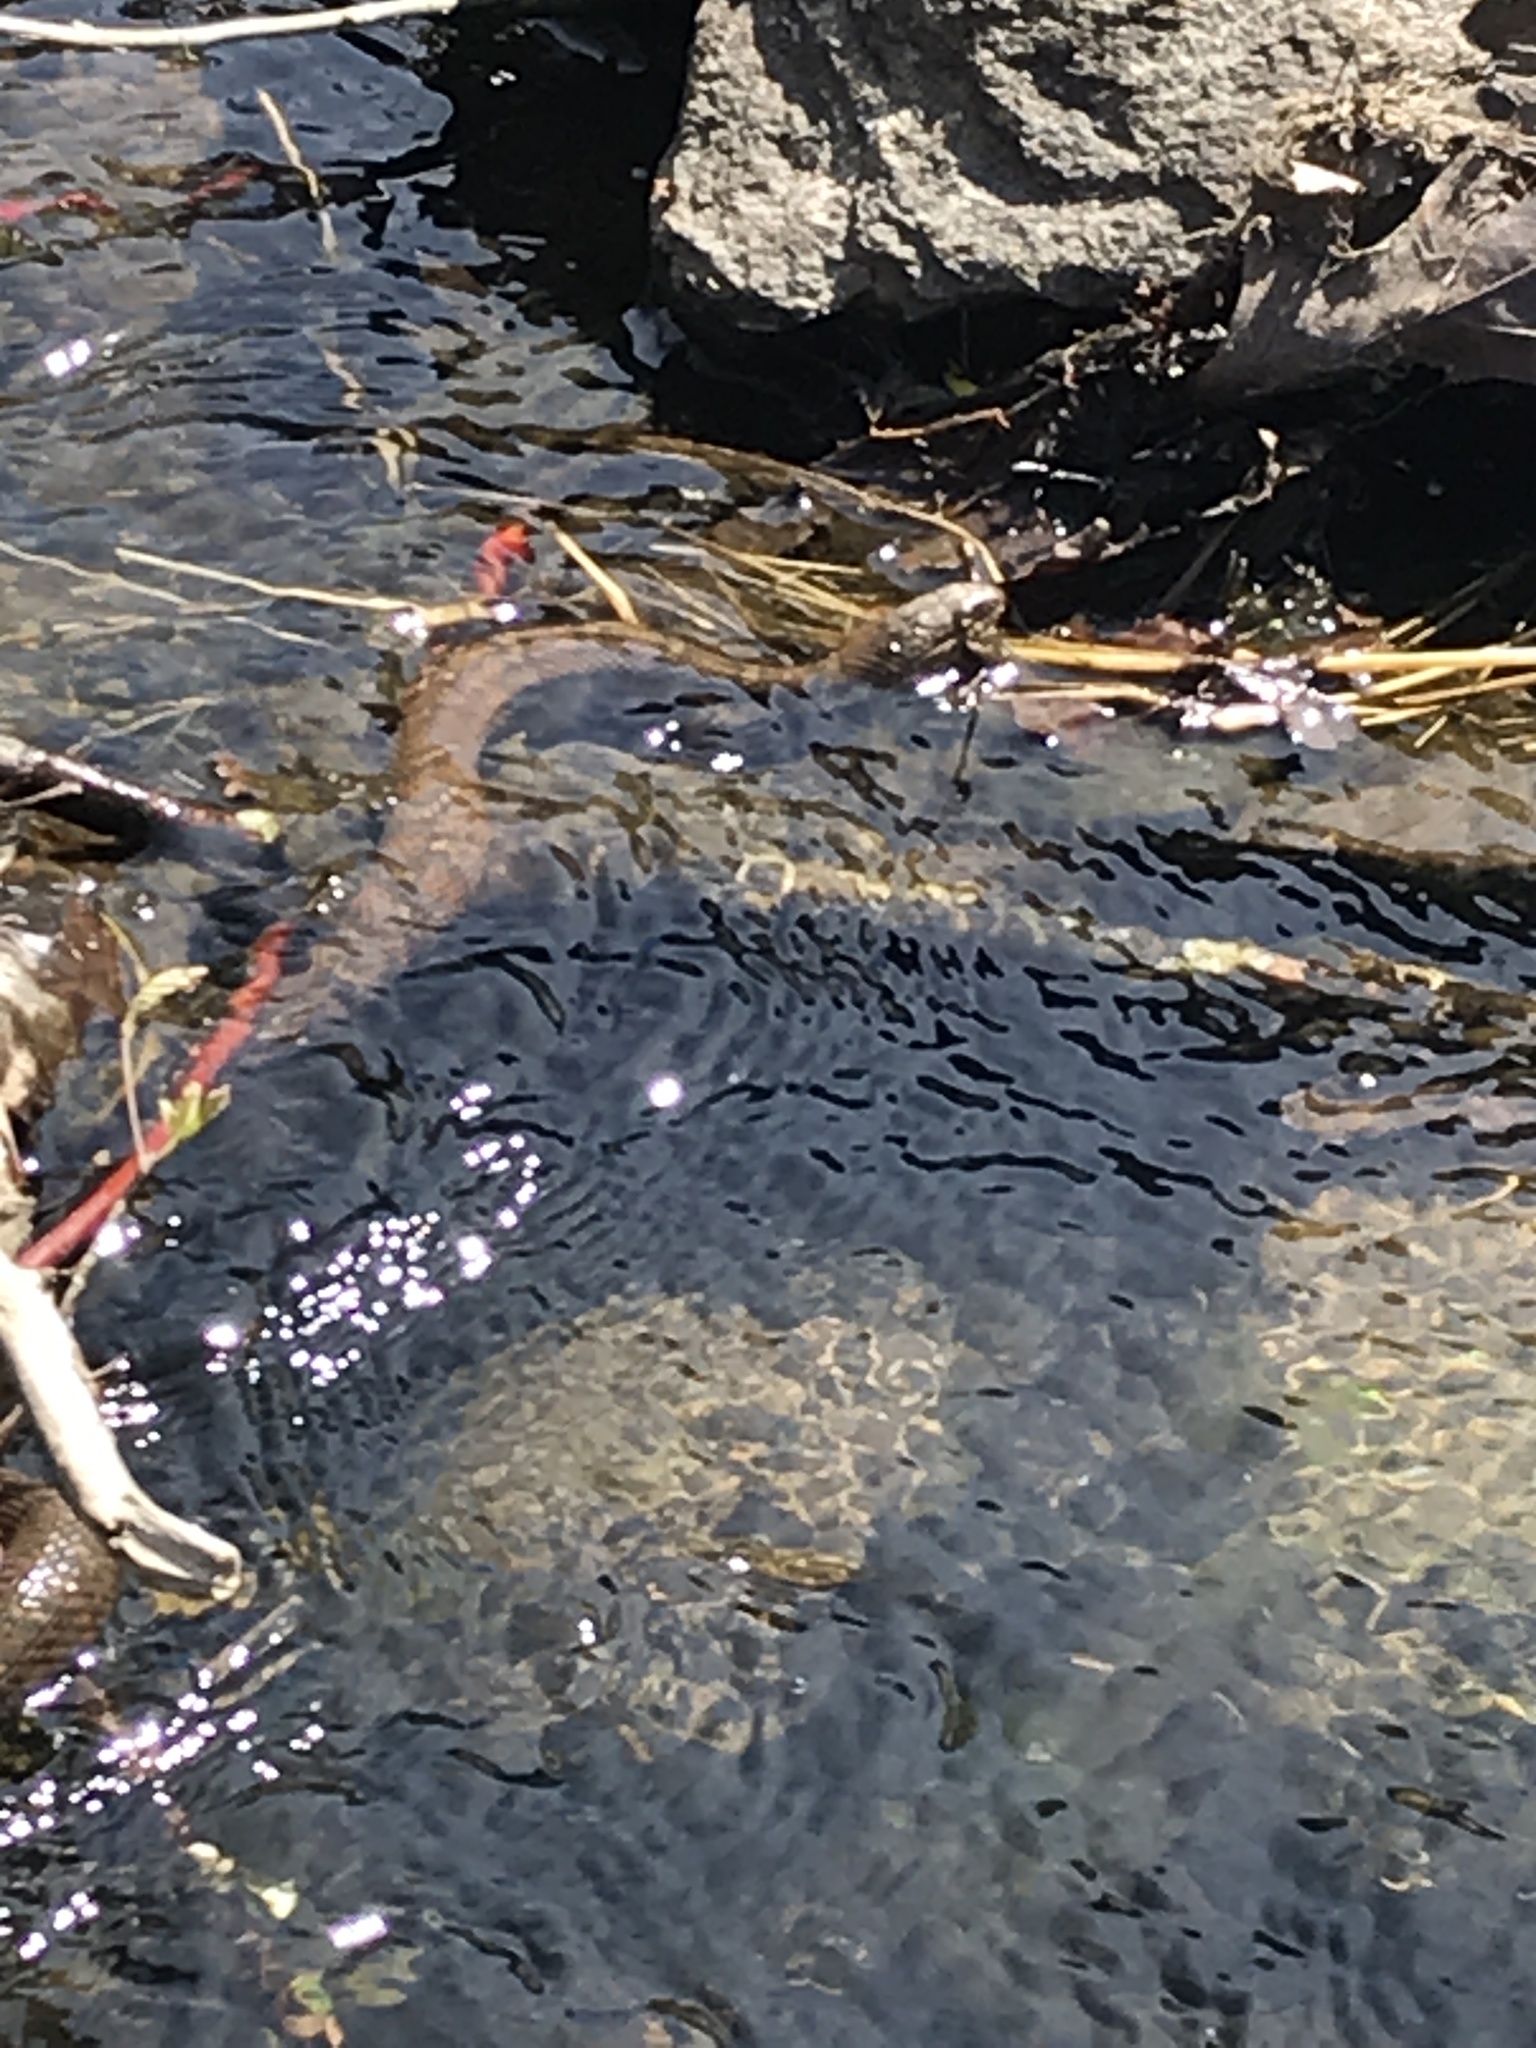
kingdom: Animalia
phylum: Chordata
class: Squamata
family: Colubridae
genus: Nerodia
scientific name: Nerodia sipedon
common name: Northern water snake
